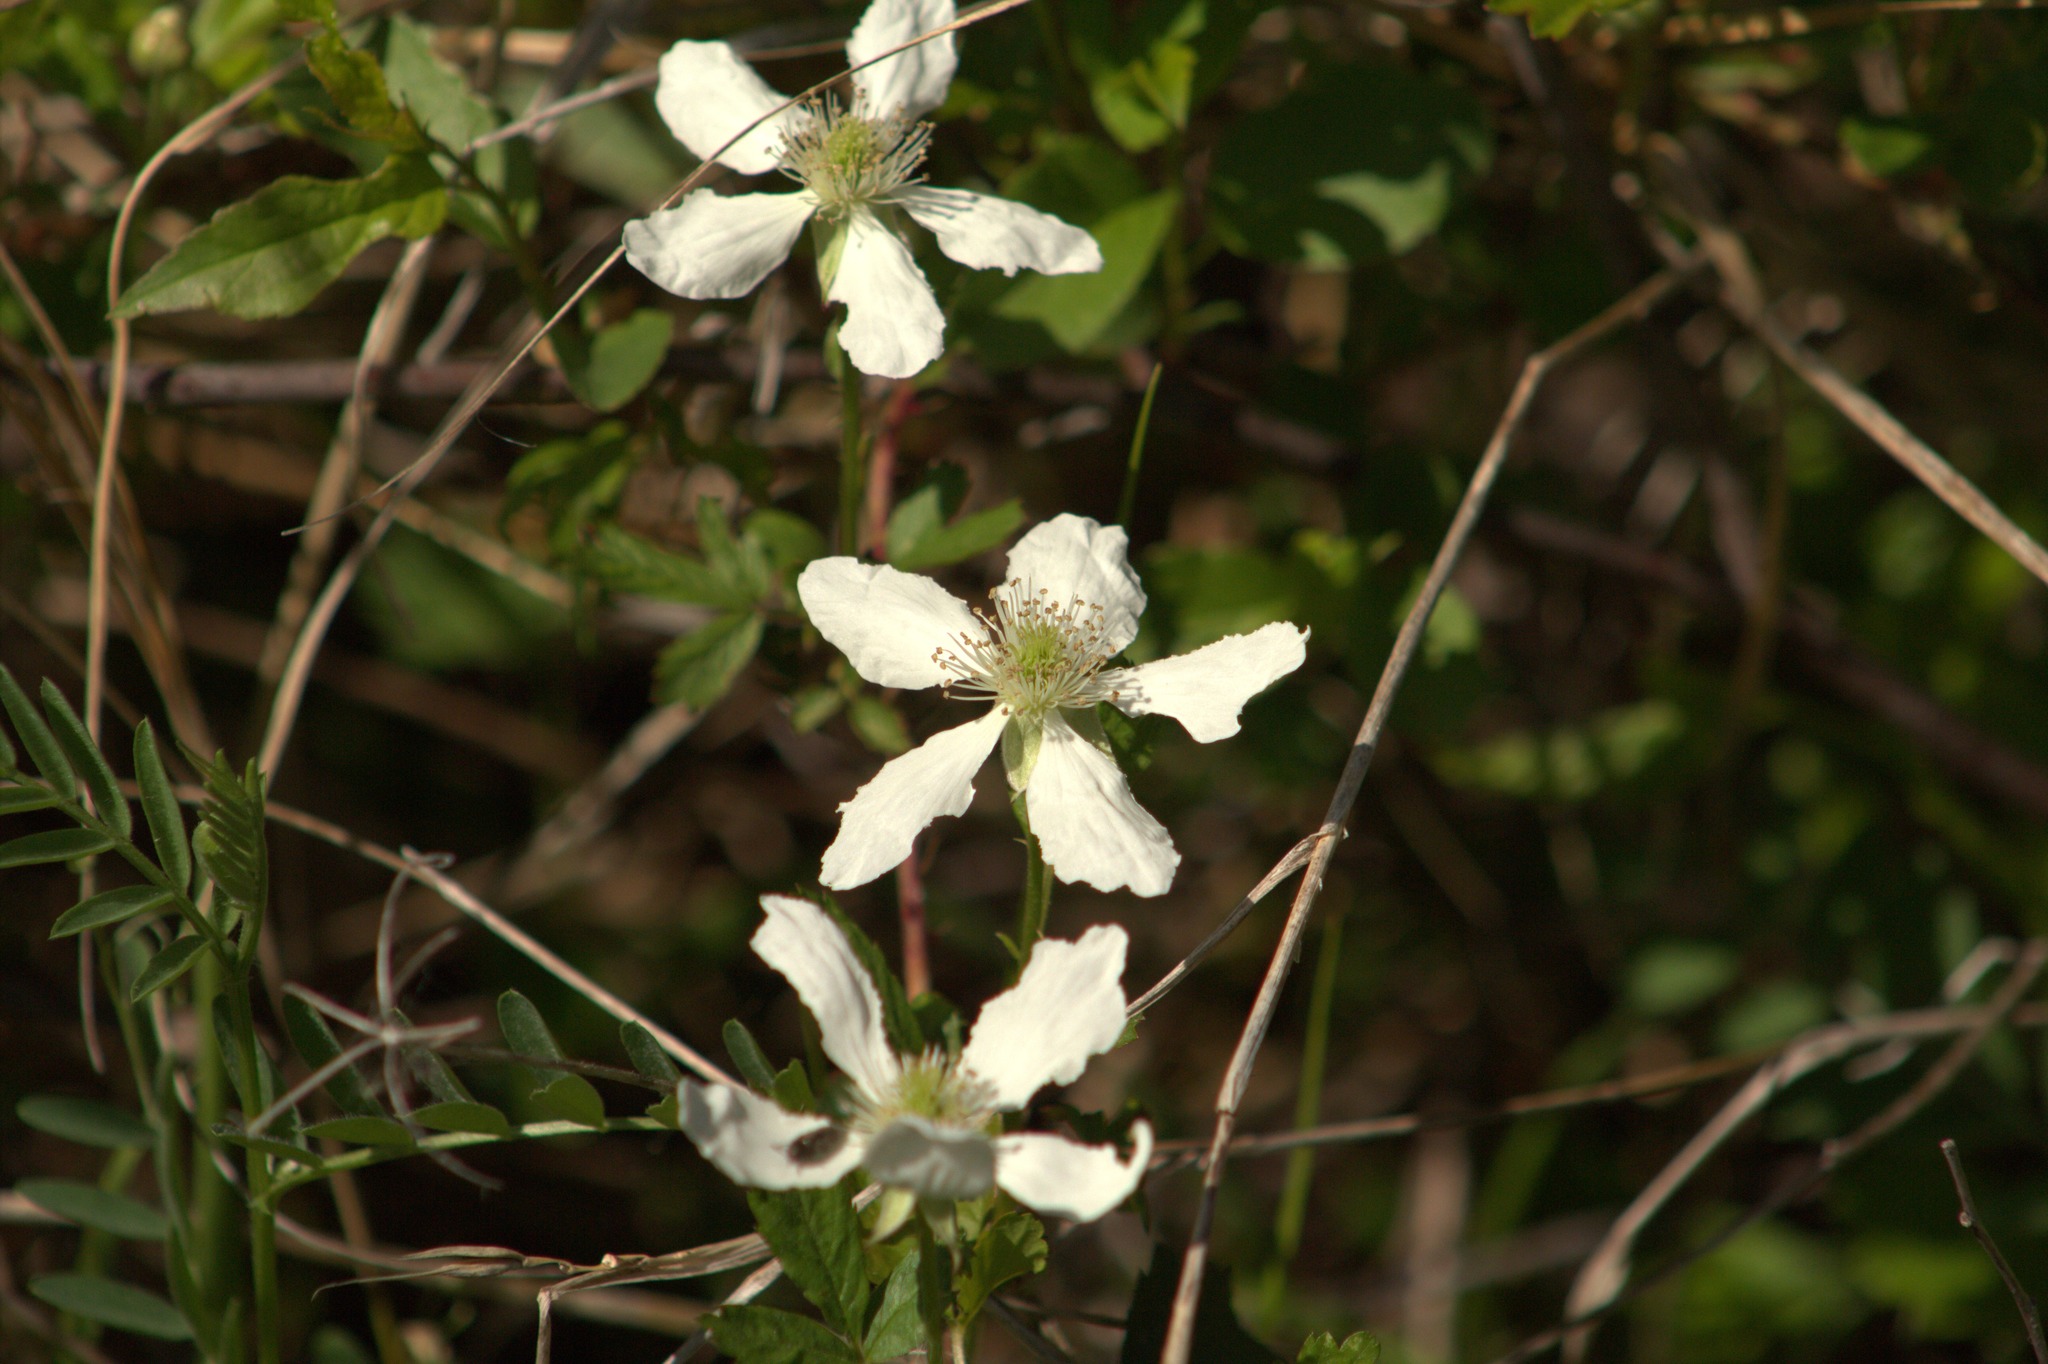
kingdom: Plantae
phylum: Tracheophyta
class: Magnoliopsida
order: Rosales
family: Rosaceae
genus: Rubus
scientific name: Rubus trivialis
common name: Southern dewberry
